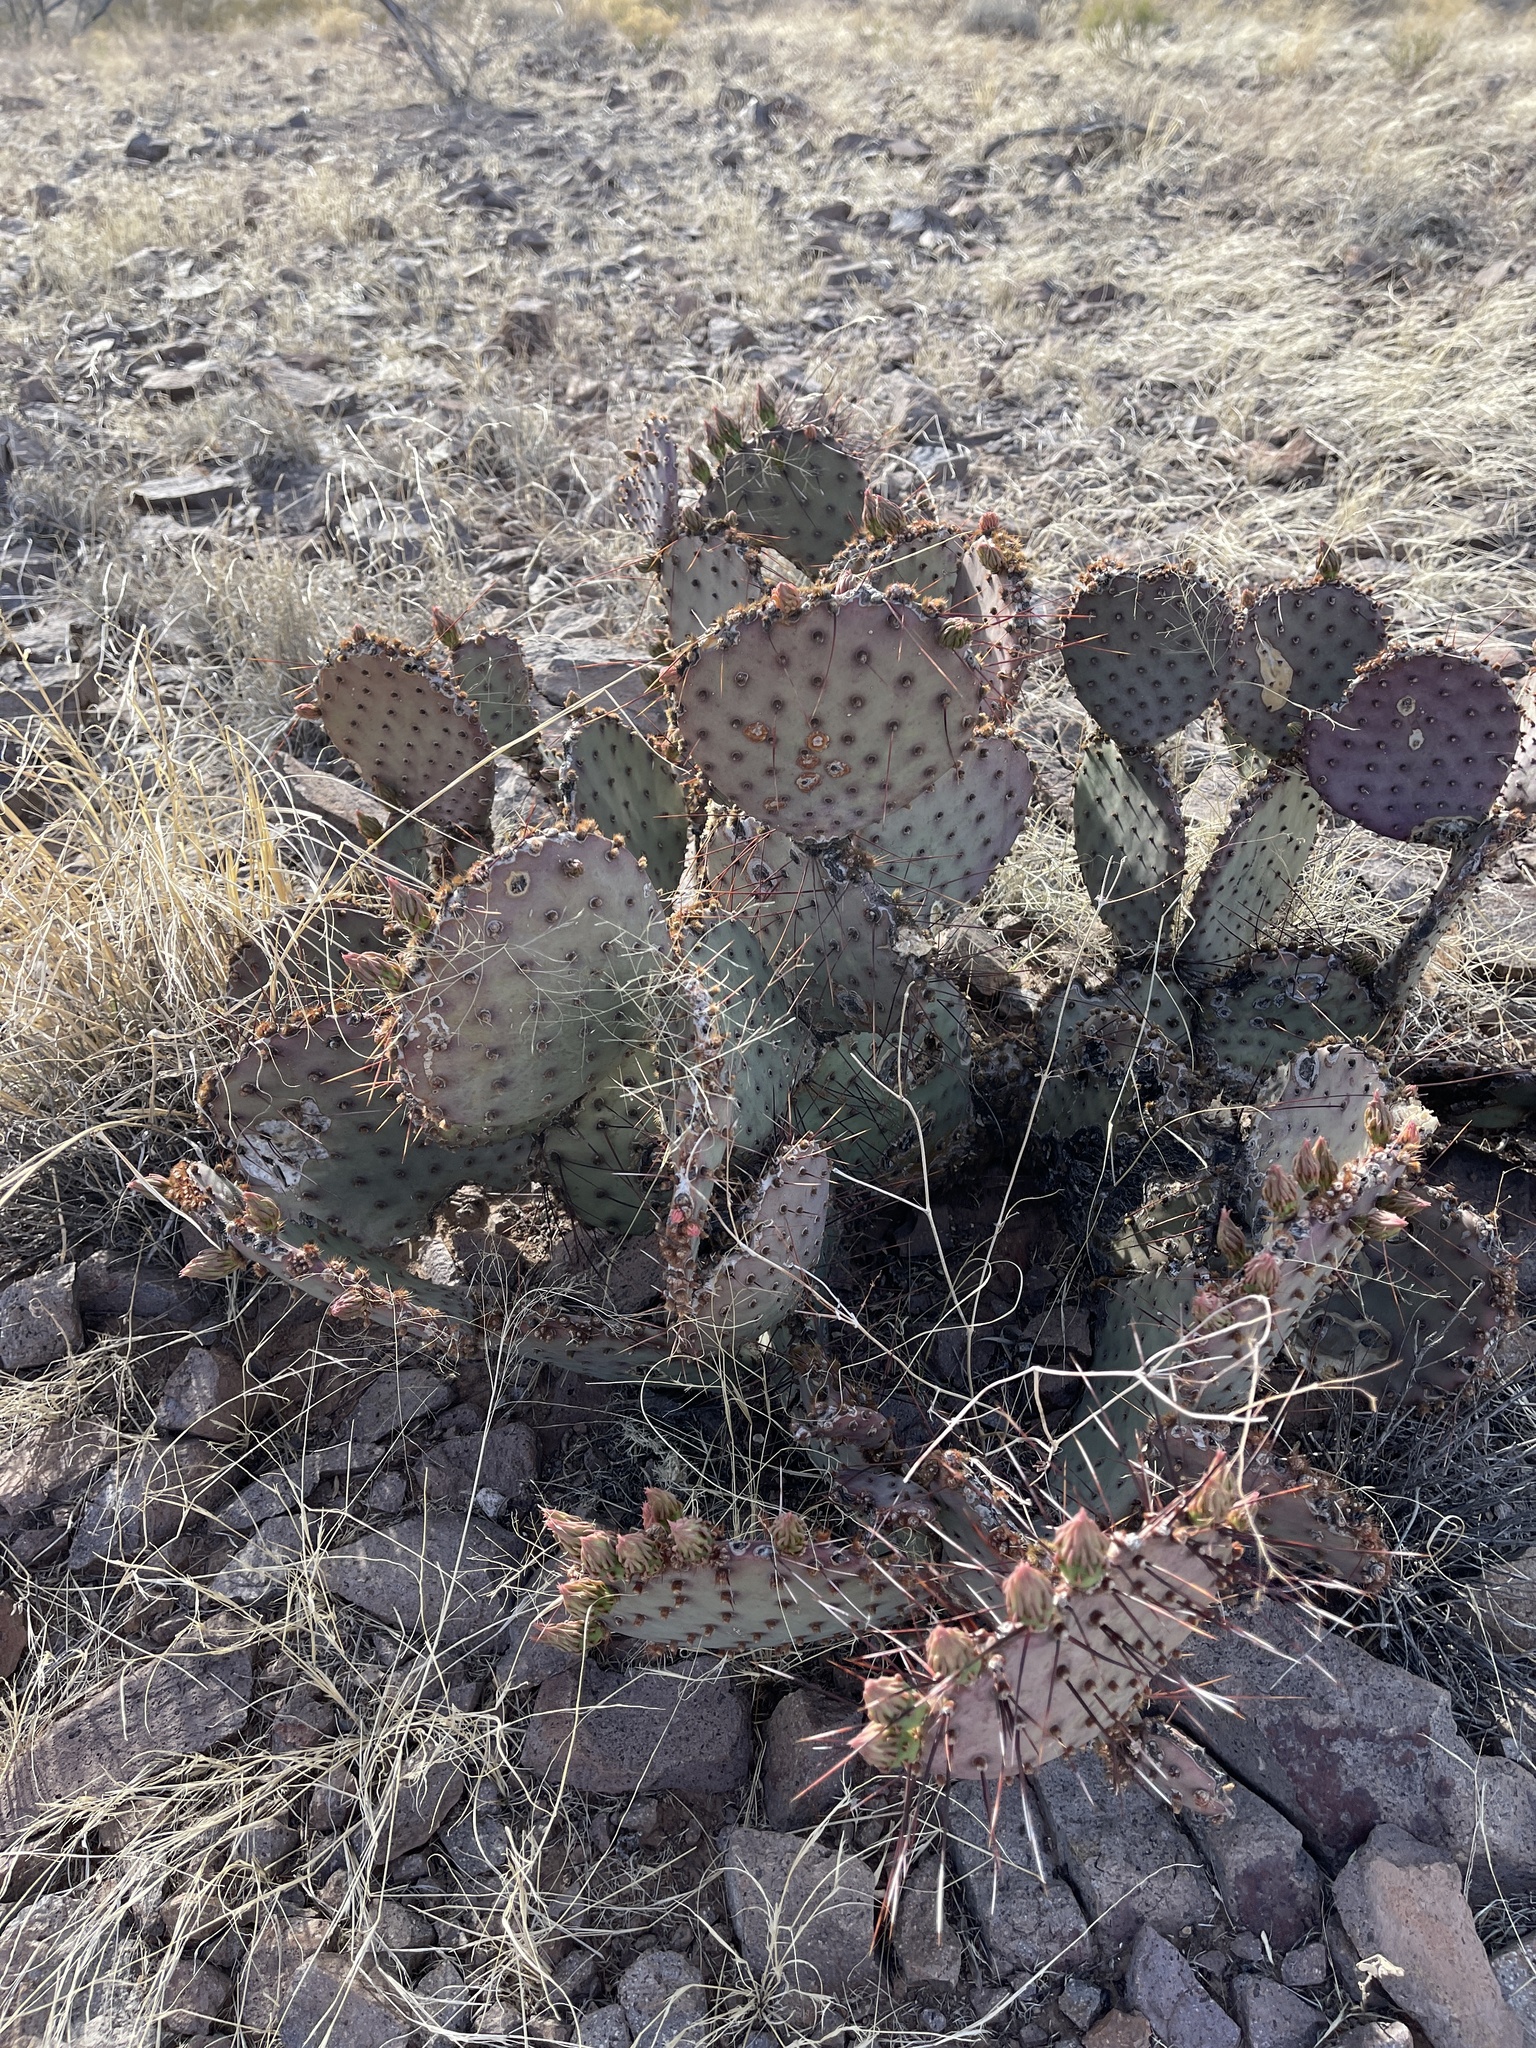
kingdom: Plantae
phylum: Tracheophyta
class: Magnoliopsida
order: Caryophyllales
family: Cactaceae
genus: Opuntia
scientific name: Opuntia macrocentra
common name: Purple prickly-pear
